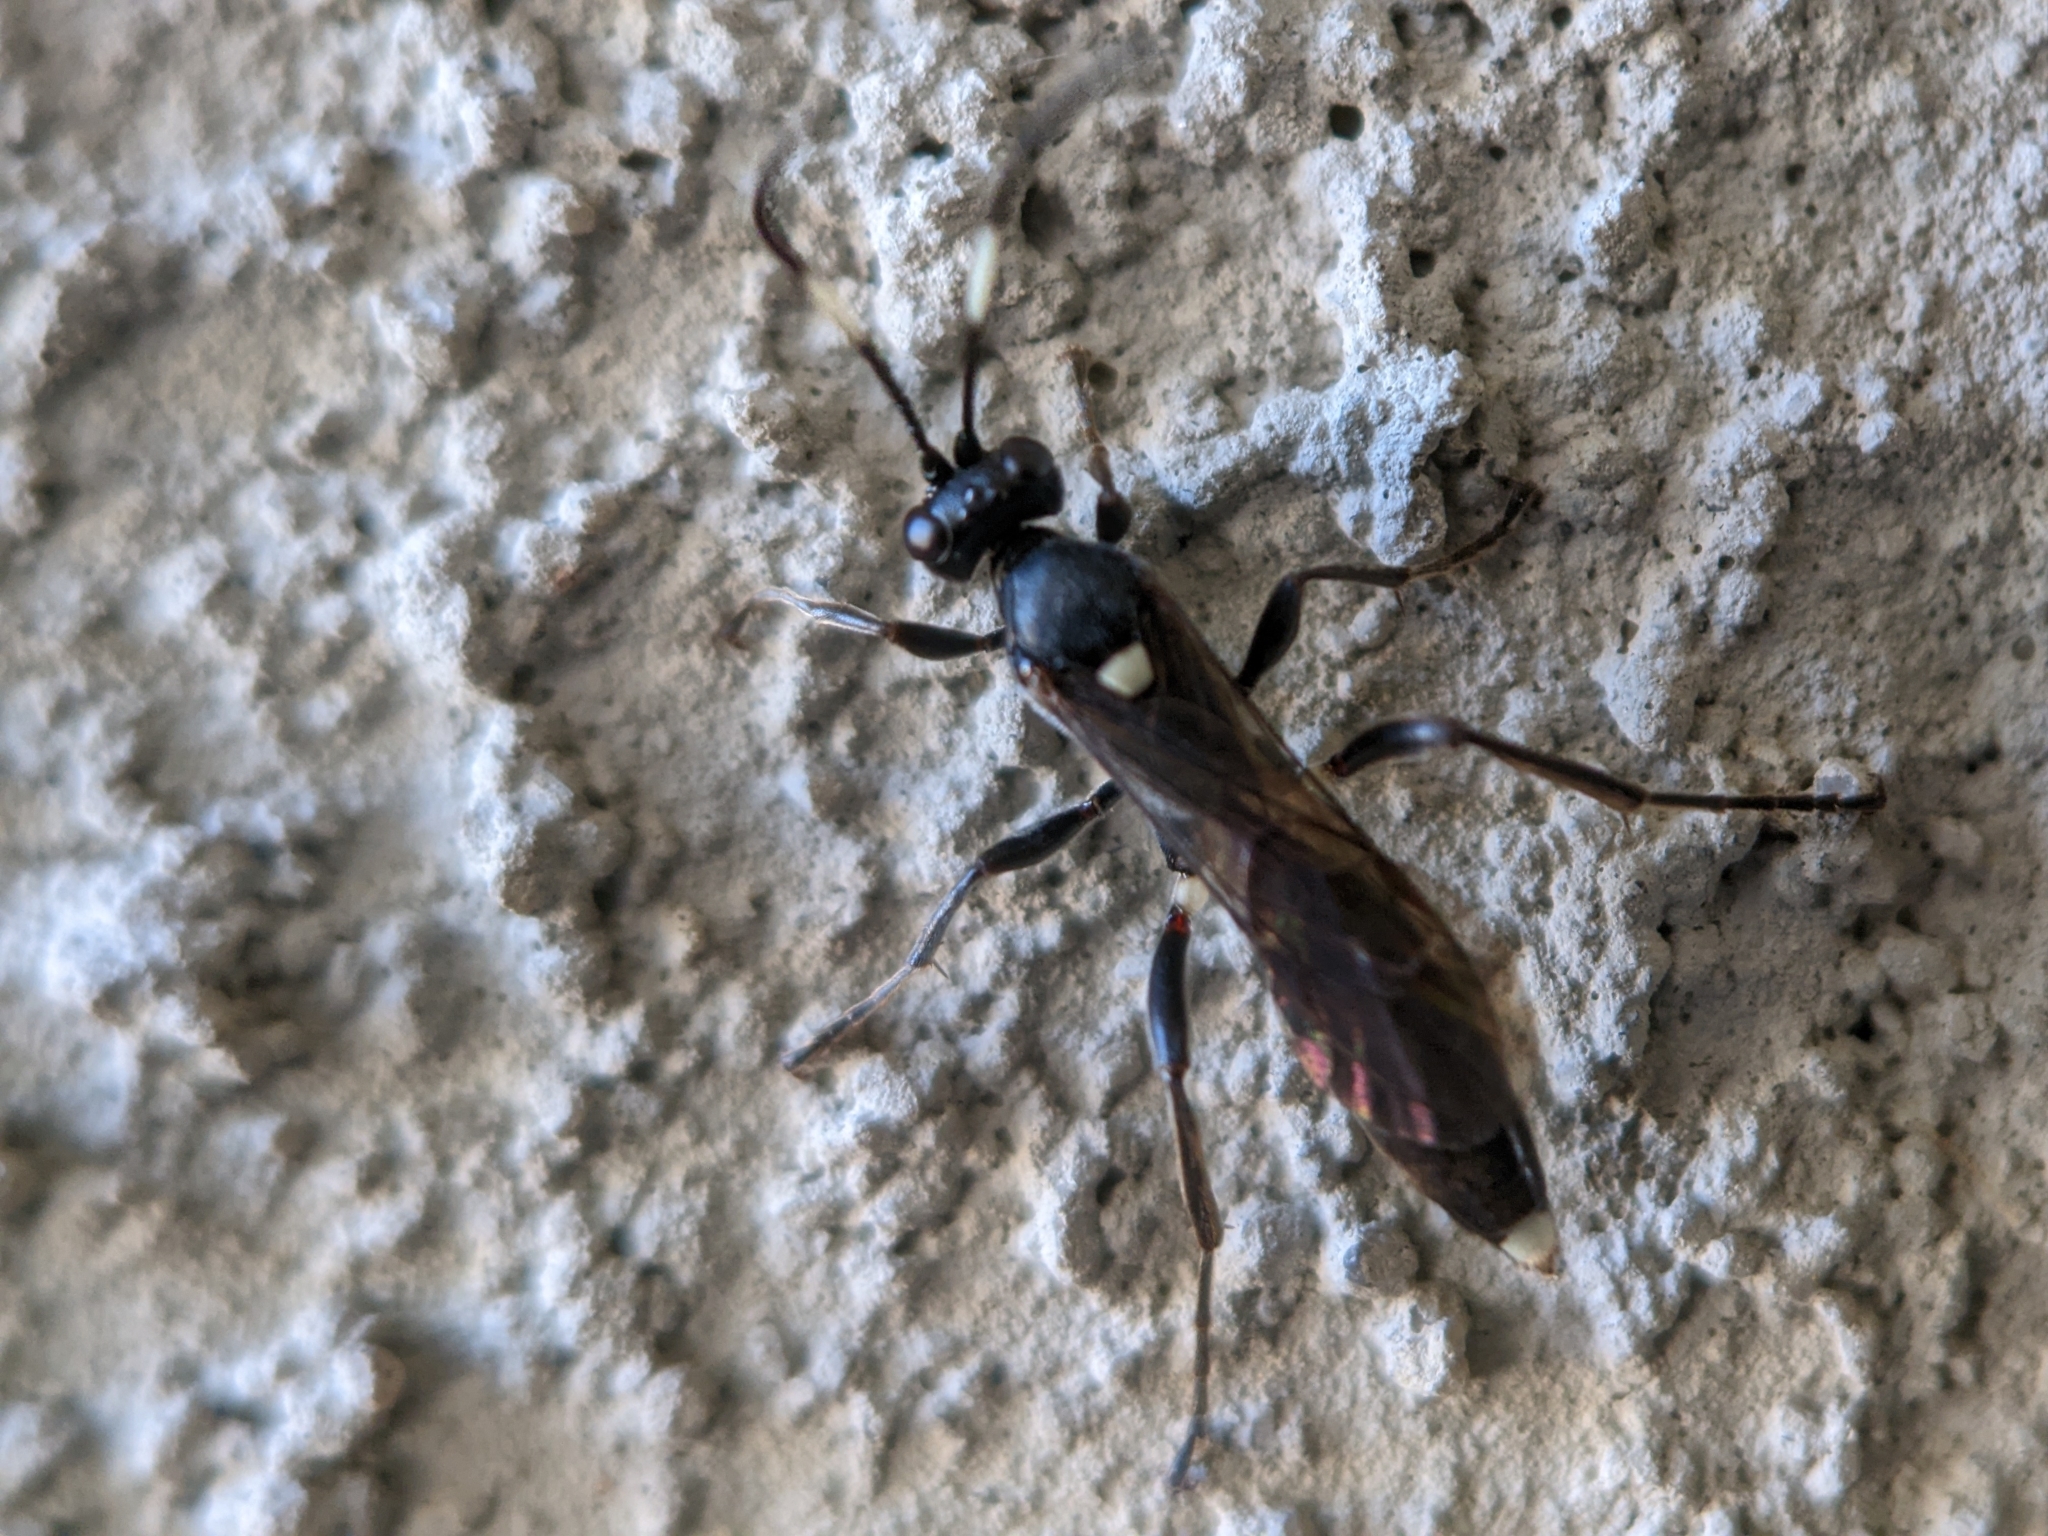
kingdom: Animalia
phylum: Arthropoda
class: Insecta
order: Hymenoptera
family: Ichneumonidae
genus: Vulgichneumon
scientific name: Vulgichneumon brevicinctor
